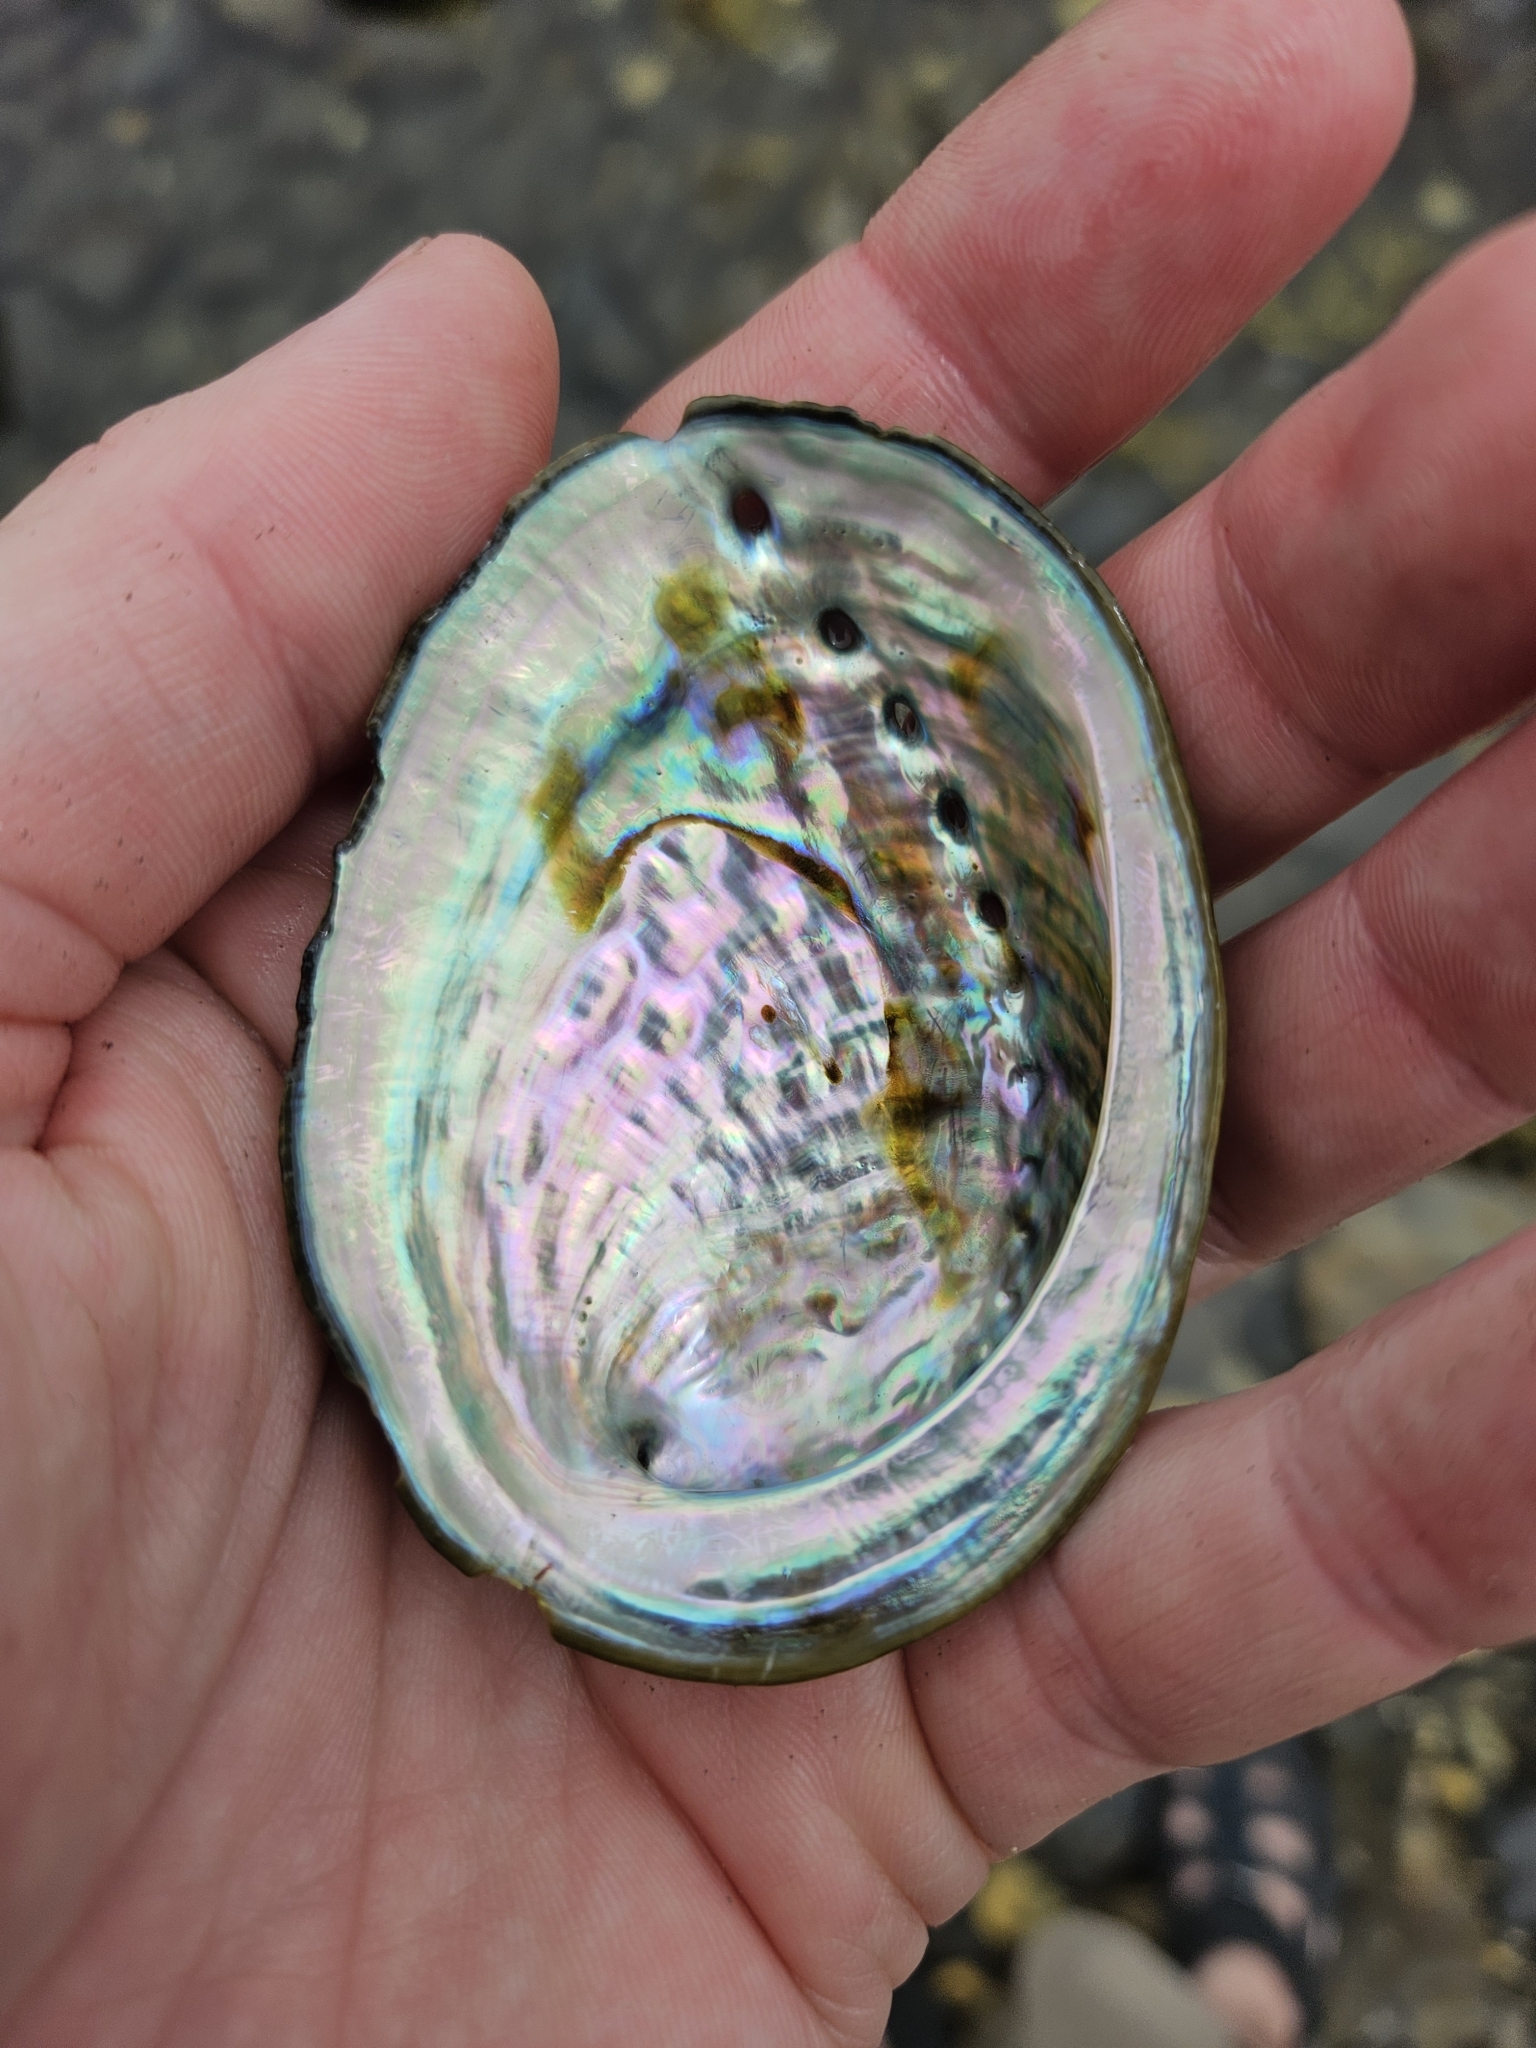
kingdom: Animalia
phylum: Mollusca
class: Gastropoda
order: Lepetellida
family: Haliotidae
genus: Haliotis
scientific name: Haliotis iris
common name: Abalone
